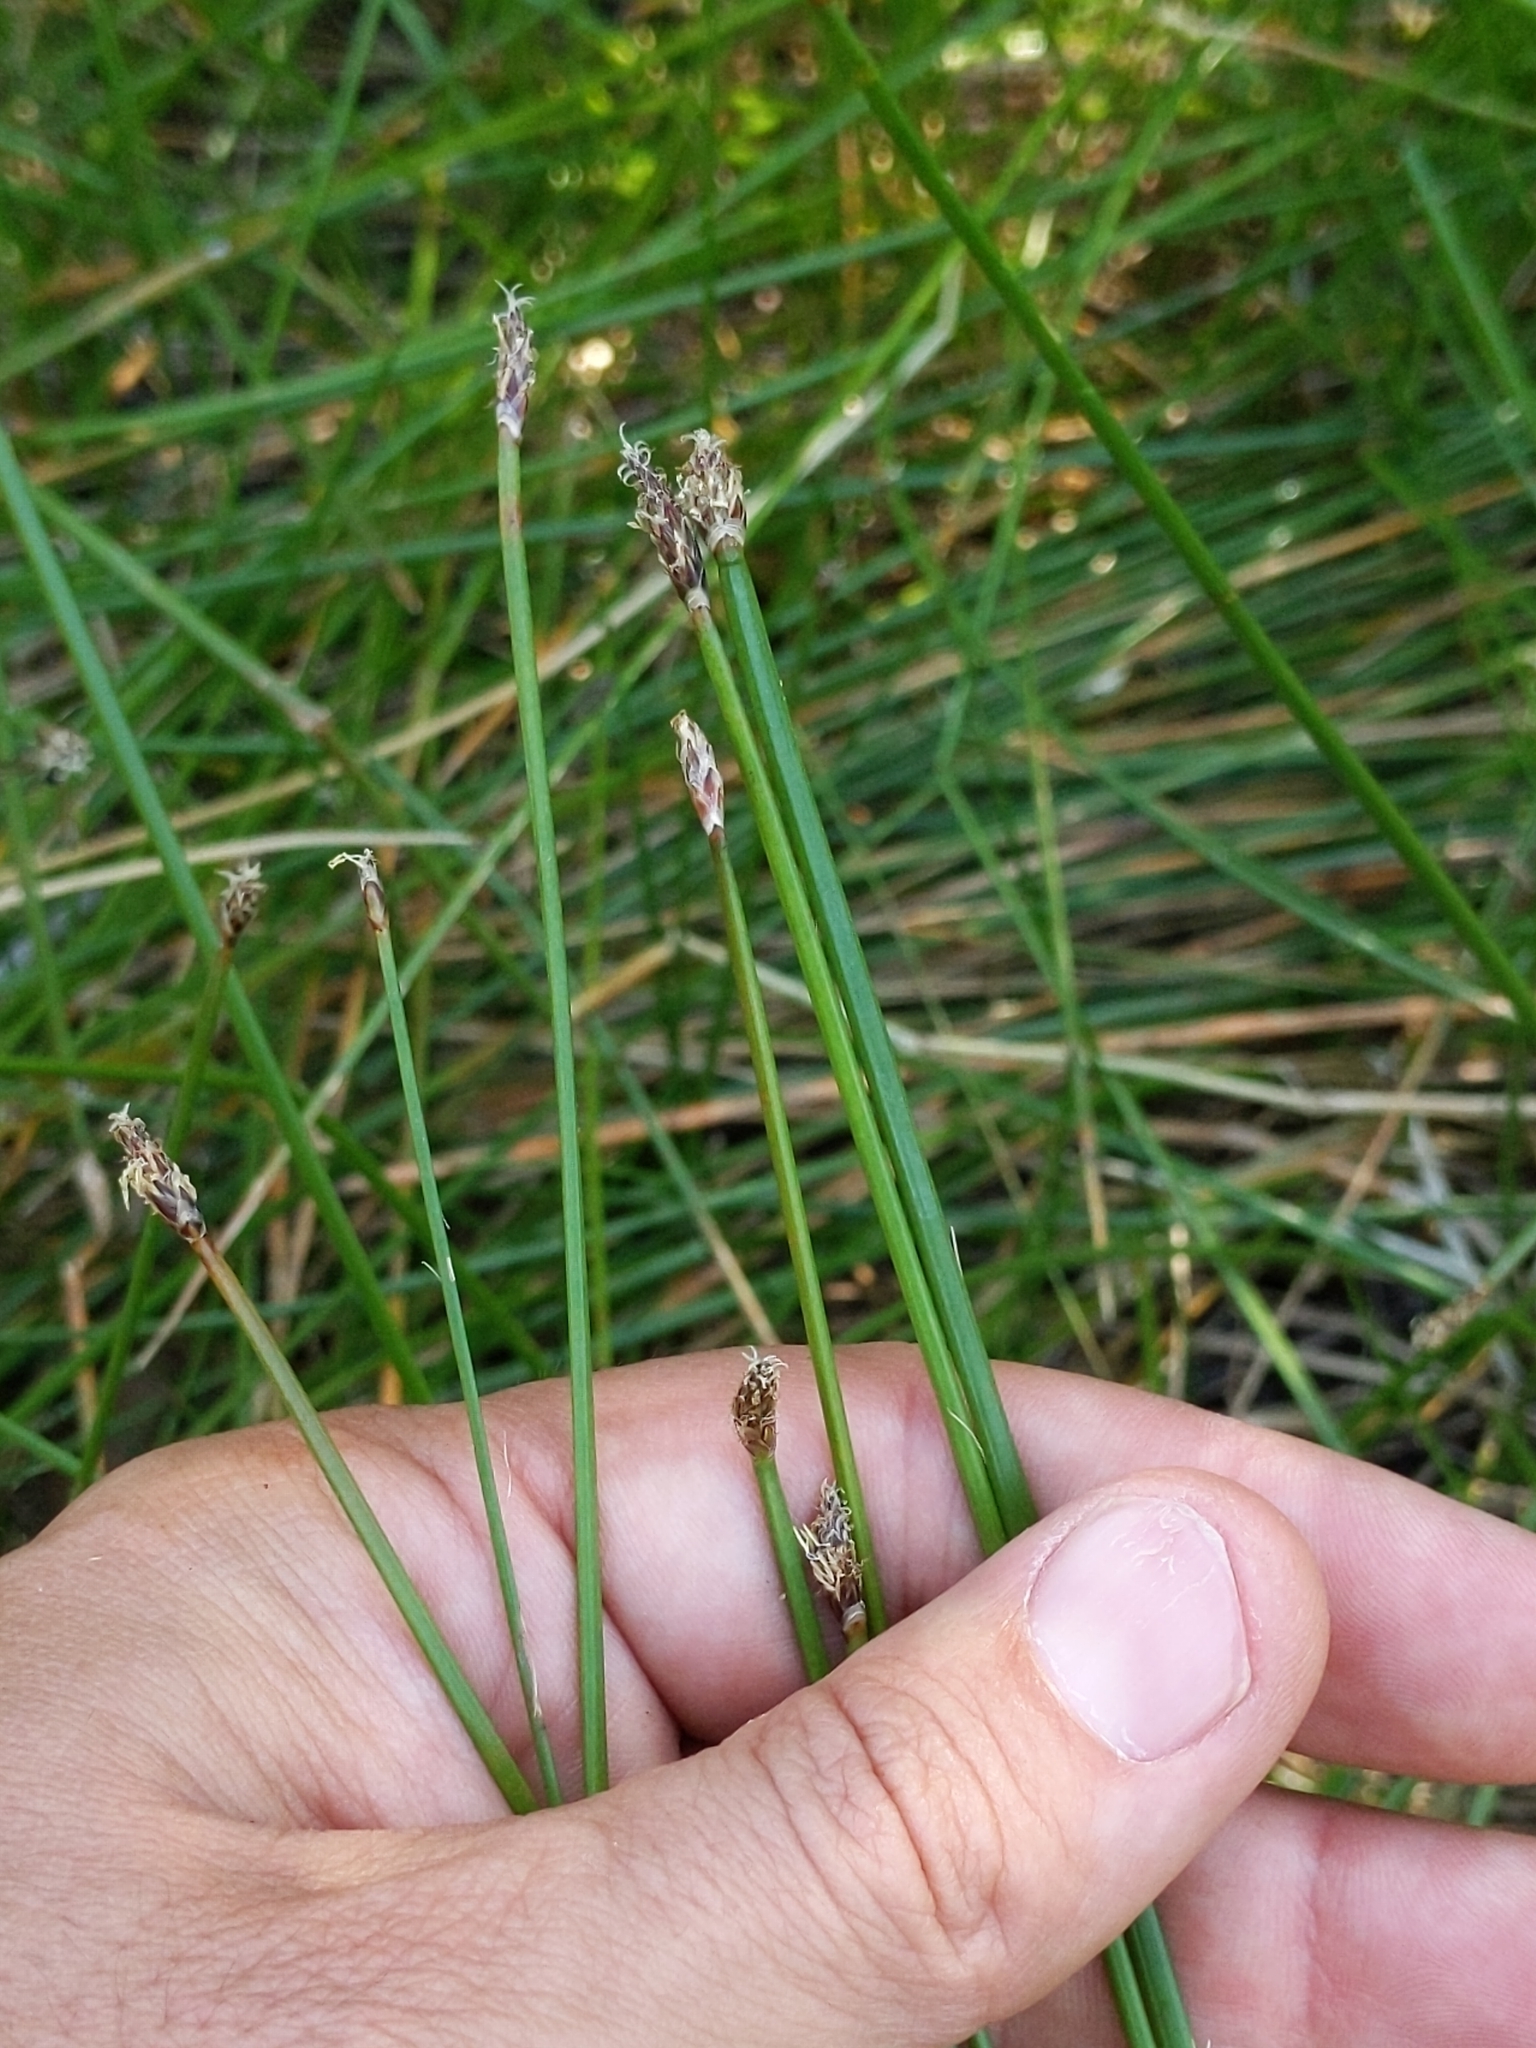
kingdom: Plantae
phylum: Tracheophyta
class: Liliopsida
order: Poales
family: Cyperaceae
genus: Eleocharis
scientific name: Eleocharis macrostachya
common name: Pale spikerush
